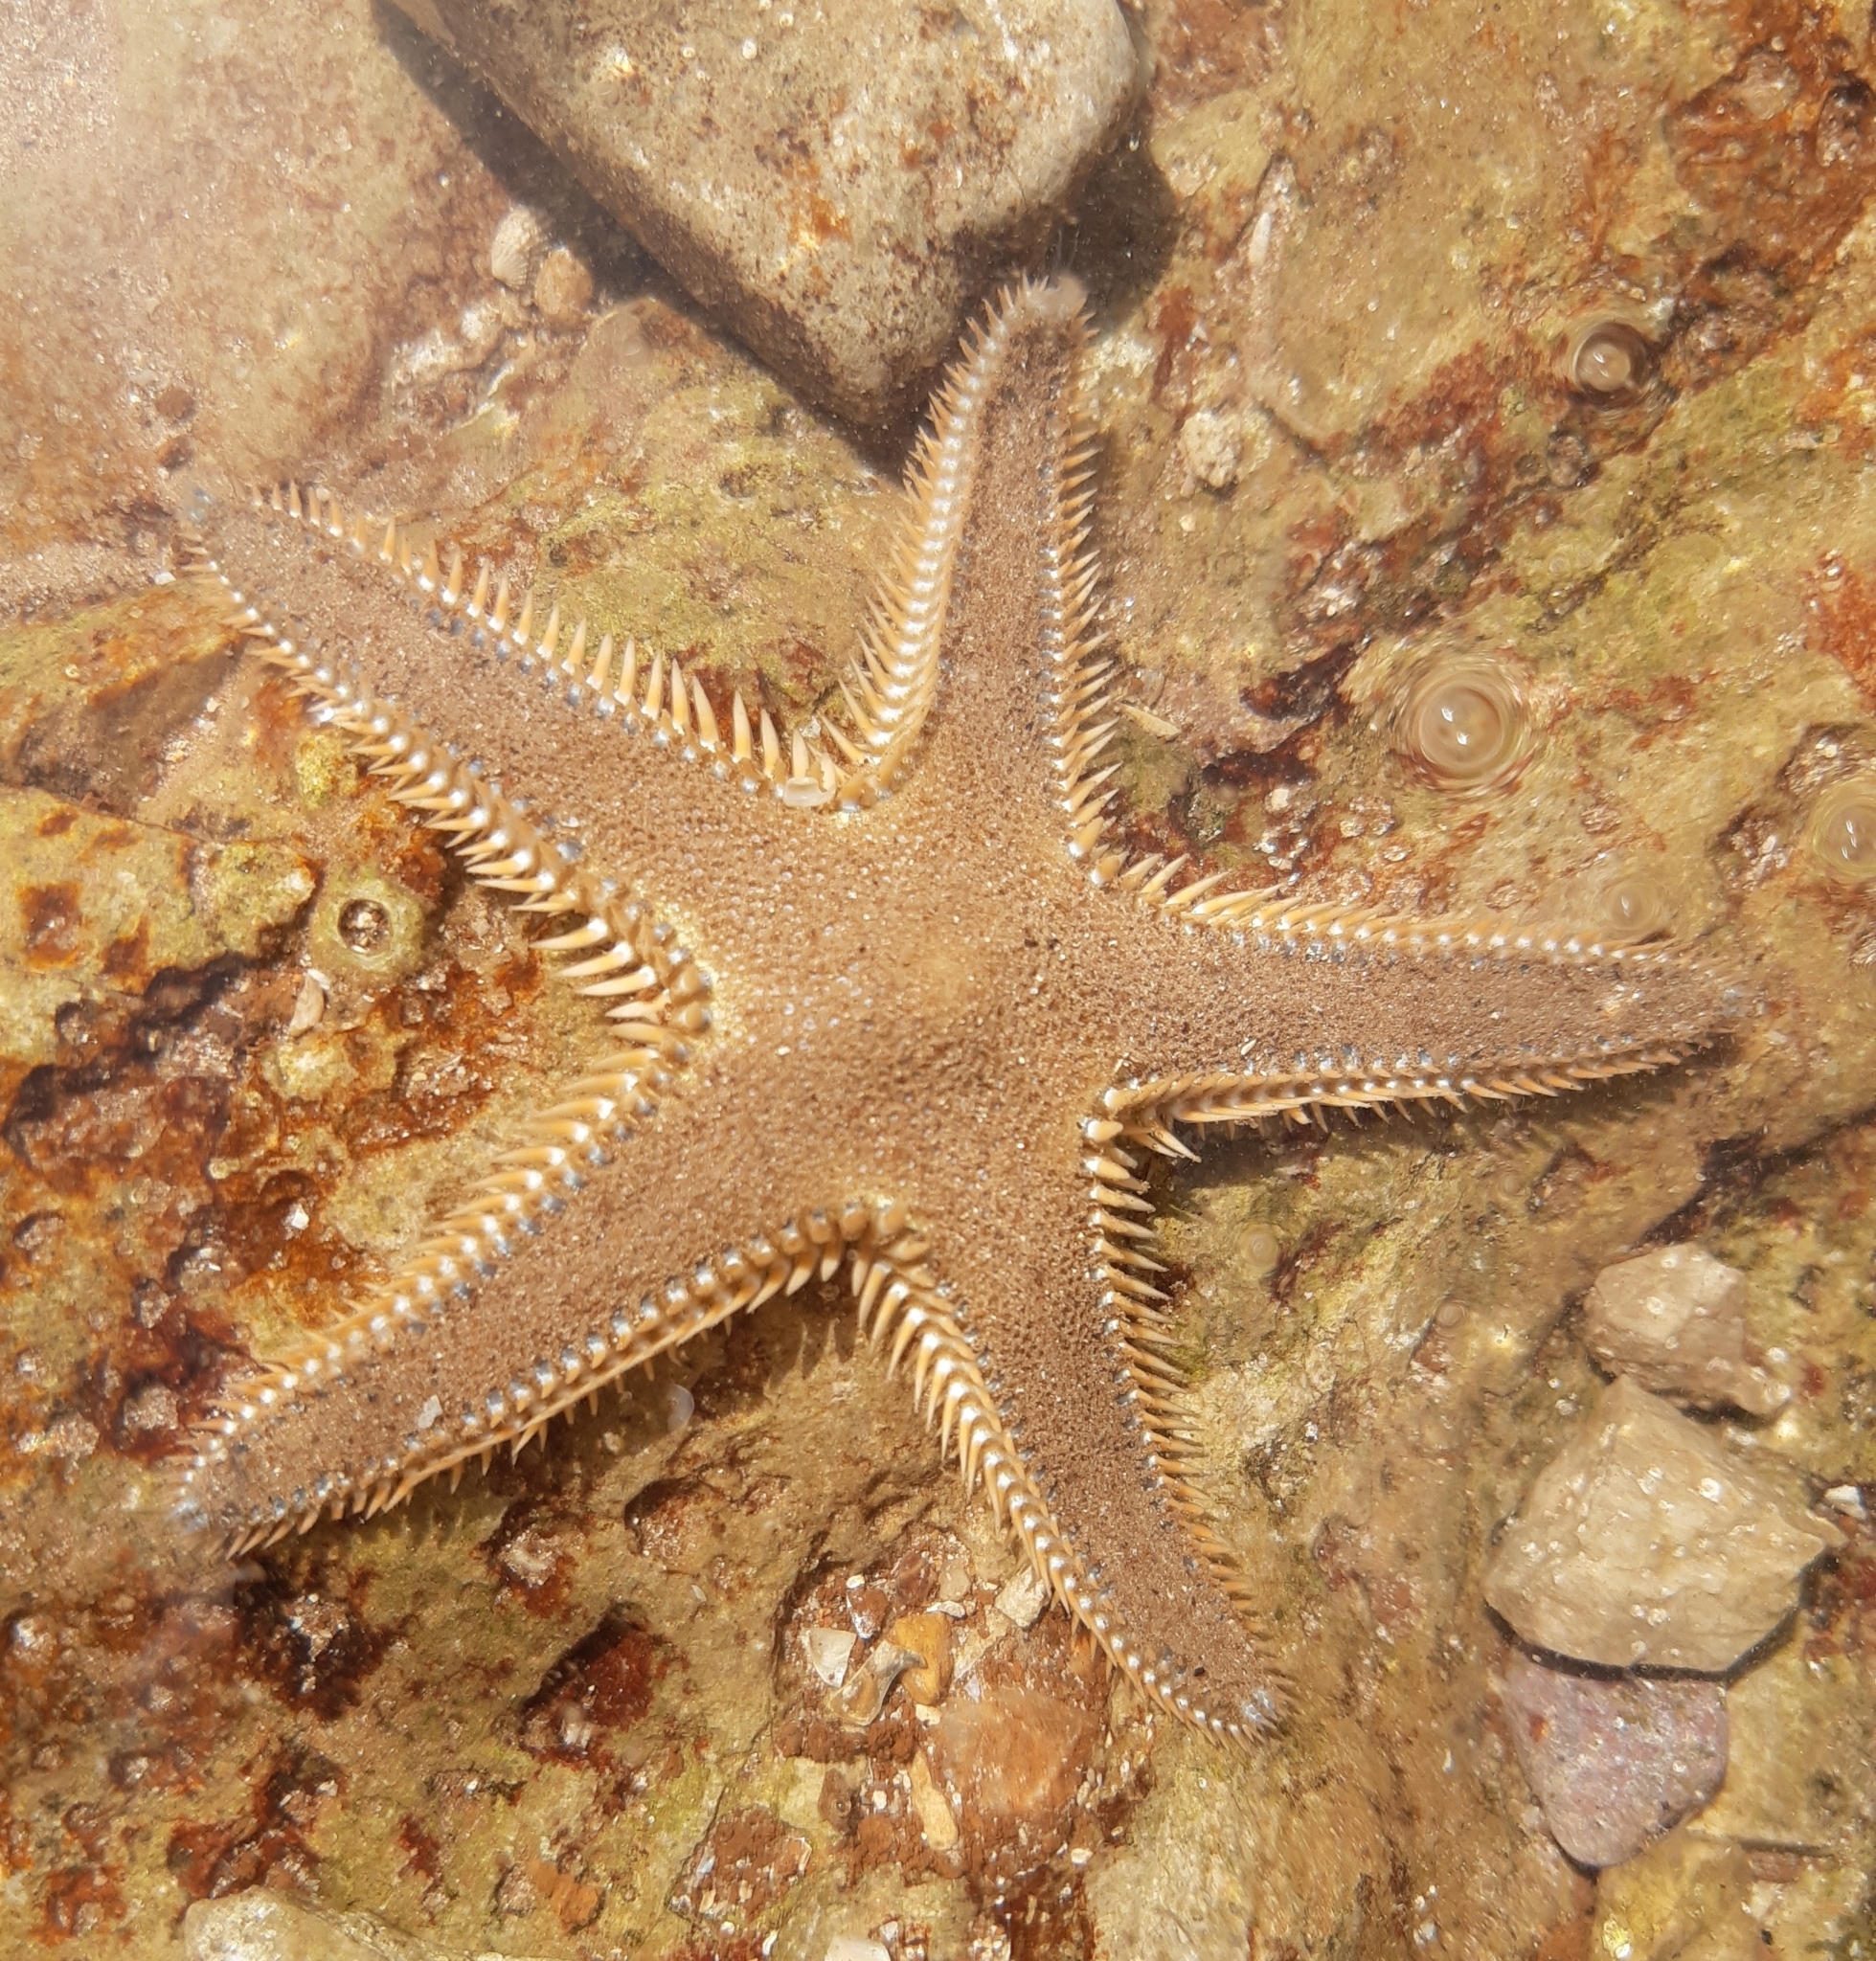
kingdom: Animalia
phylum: Echinodermata
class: Asteroidea
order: Paxillosida
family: Astropectinidae
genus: Astropecten
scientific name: Astropecten platyacanthus
